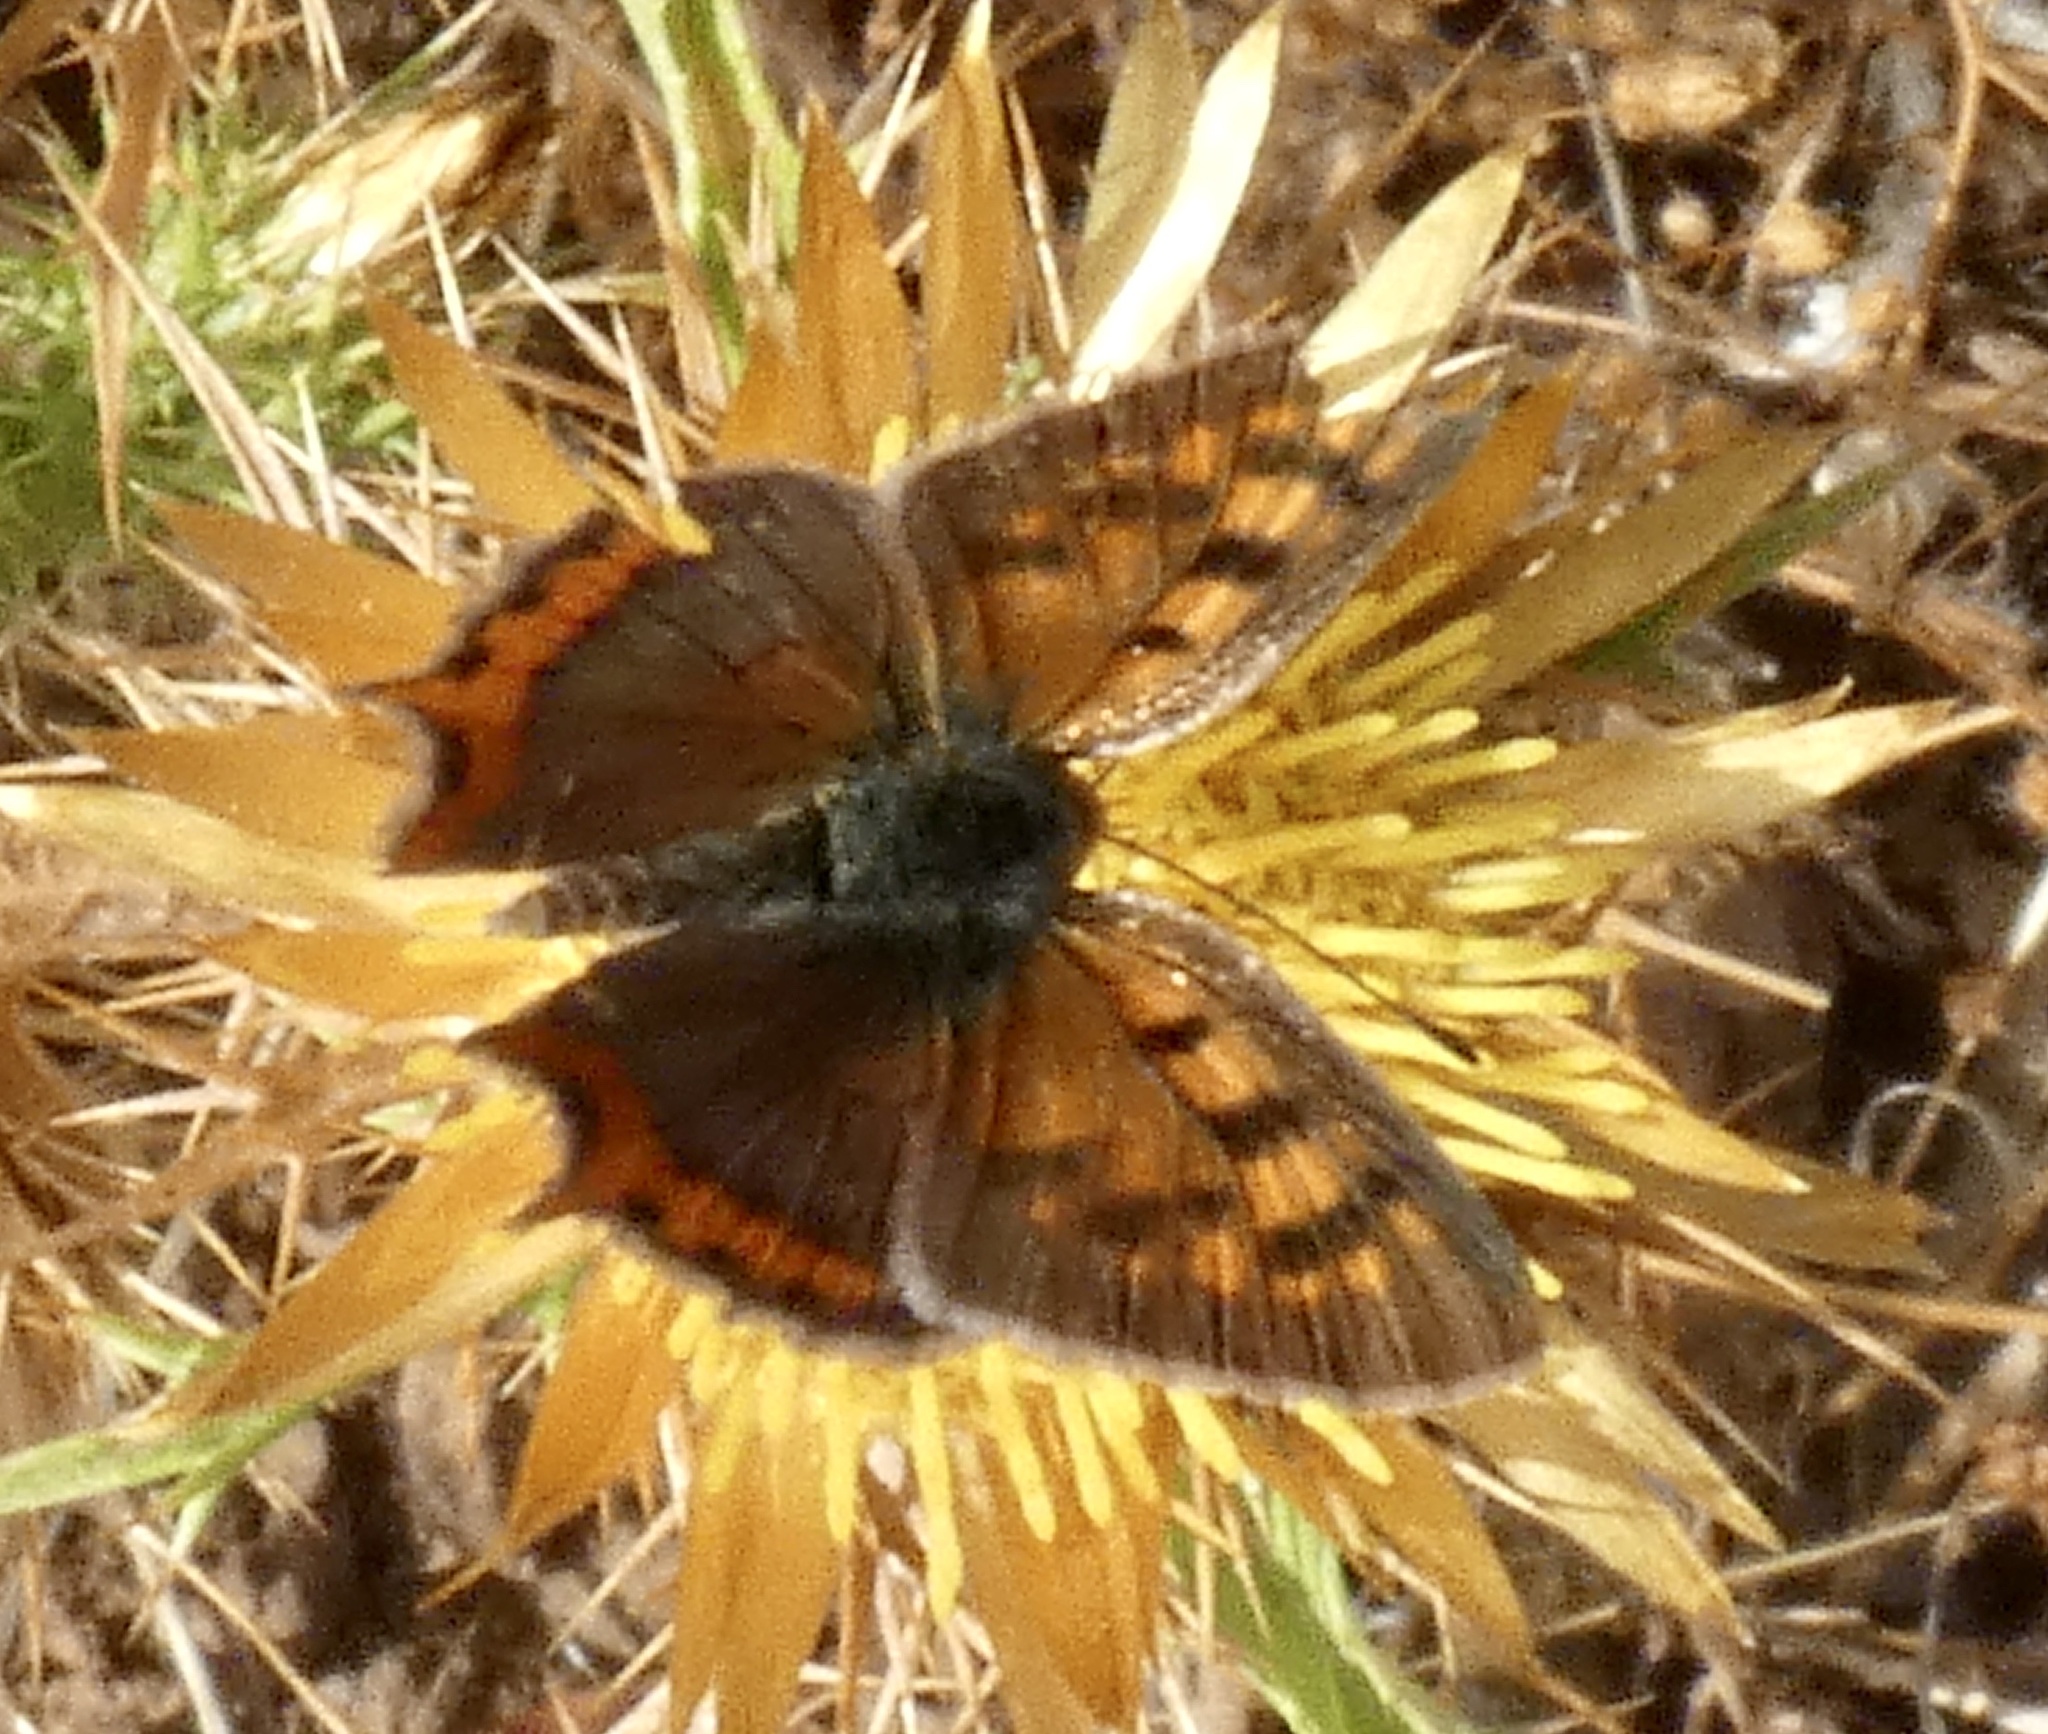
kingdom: Animalia
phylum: Arthropoda
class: Insecta
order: Lepidoptera
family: Lycaenidae
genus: Lycaena
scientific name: Lycaena phlaeas
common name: Small copper
